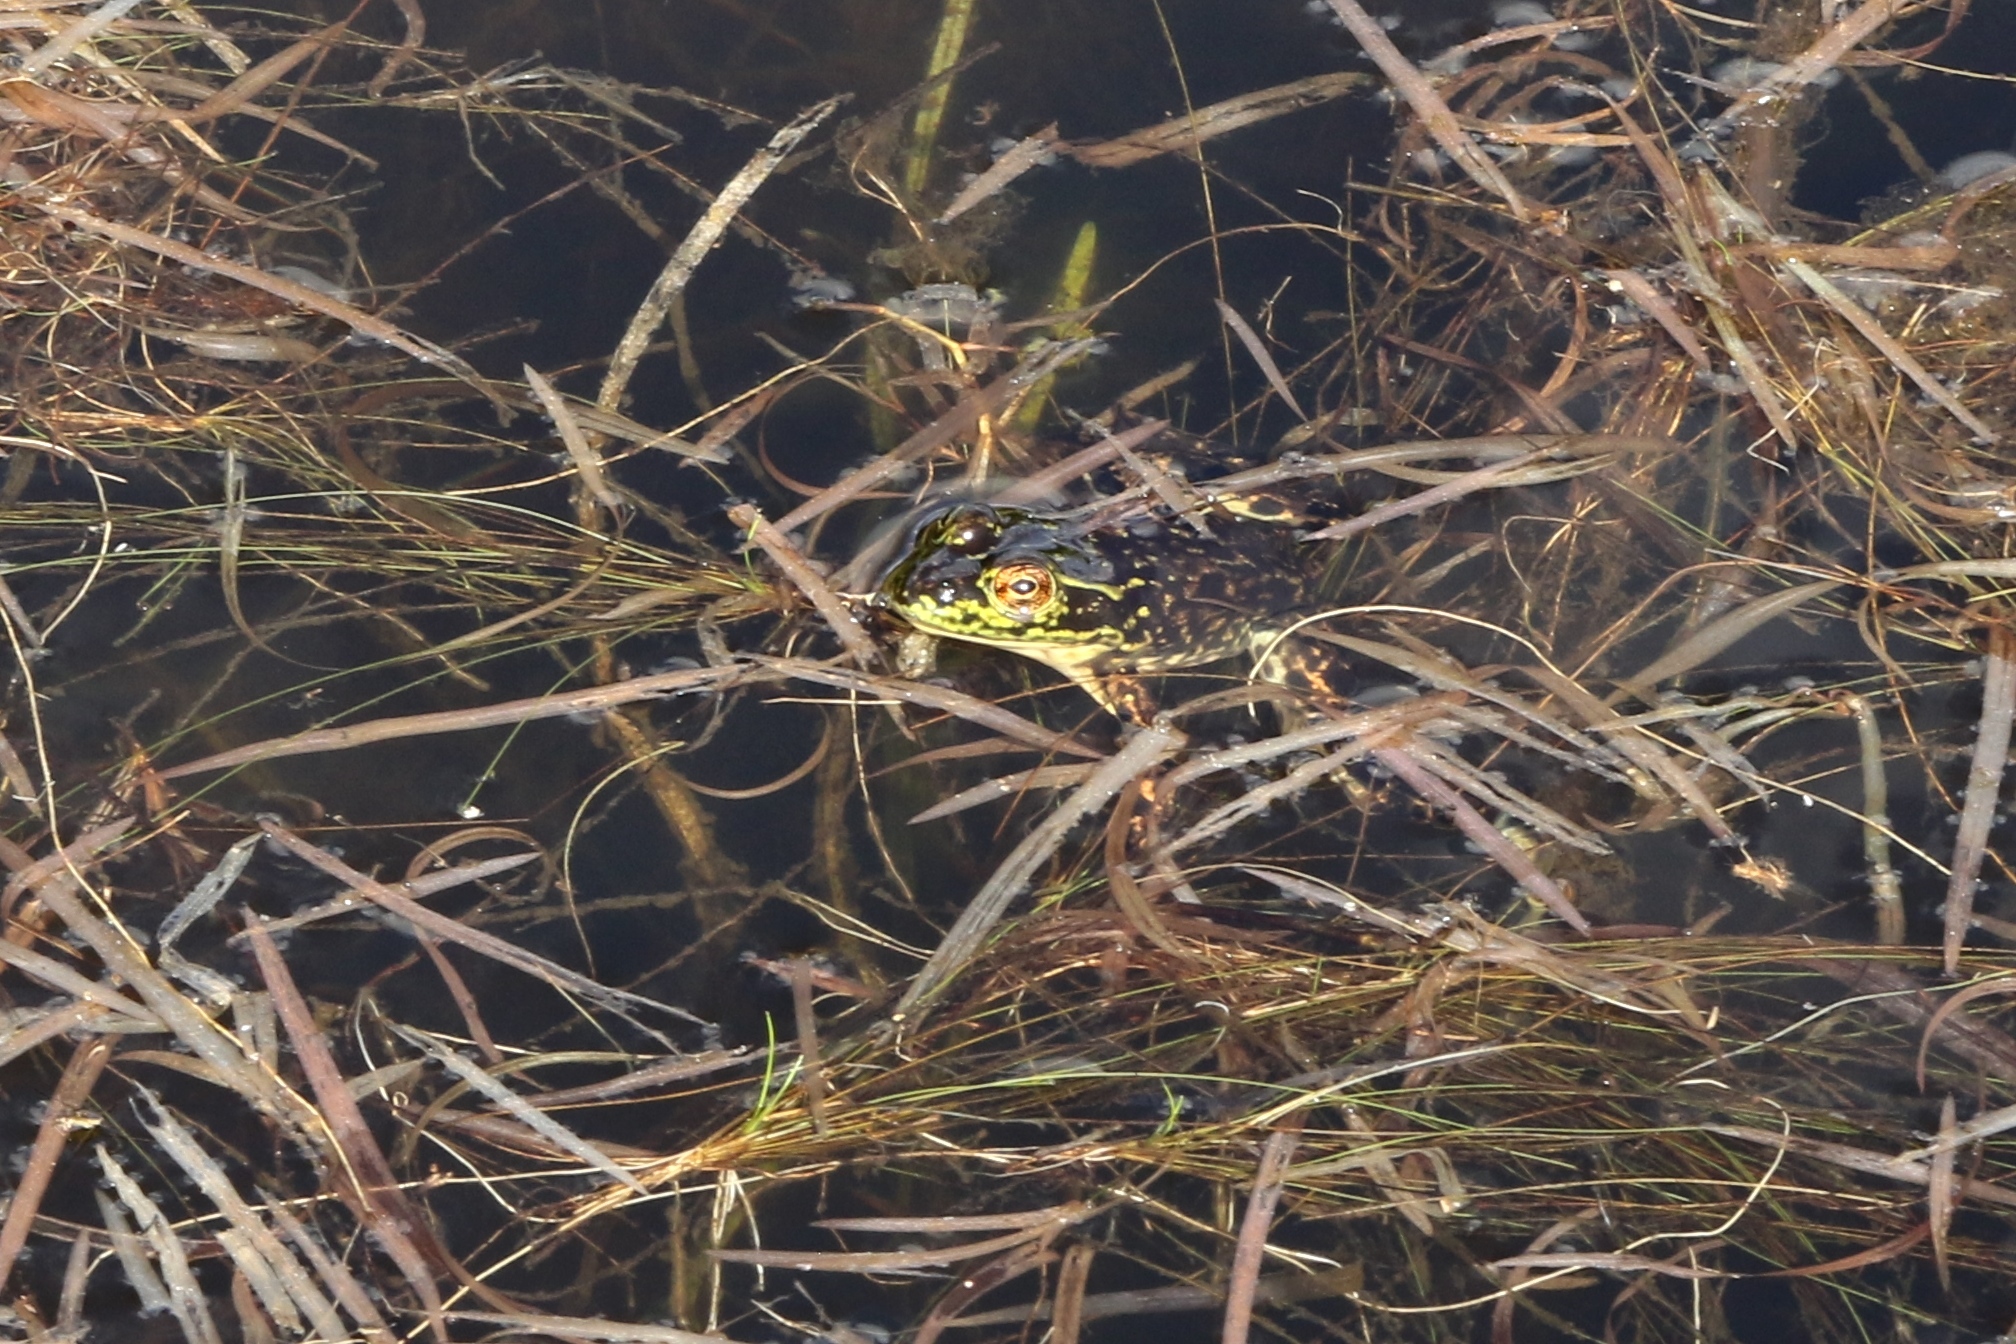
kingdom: Animalia
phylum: Chordata
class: Amphibia
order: Anura
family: Ranidae
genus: Lithobates
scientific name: Lithobates septentrionalis
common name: Mink frog
